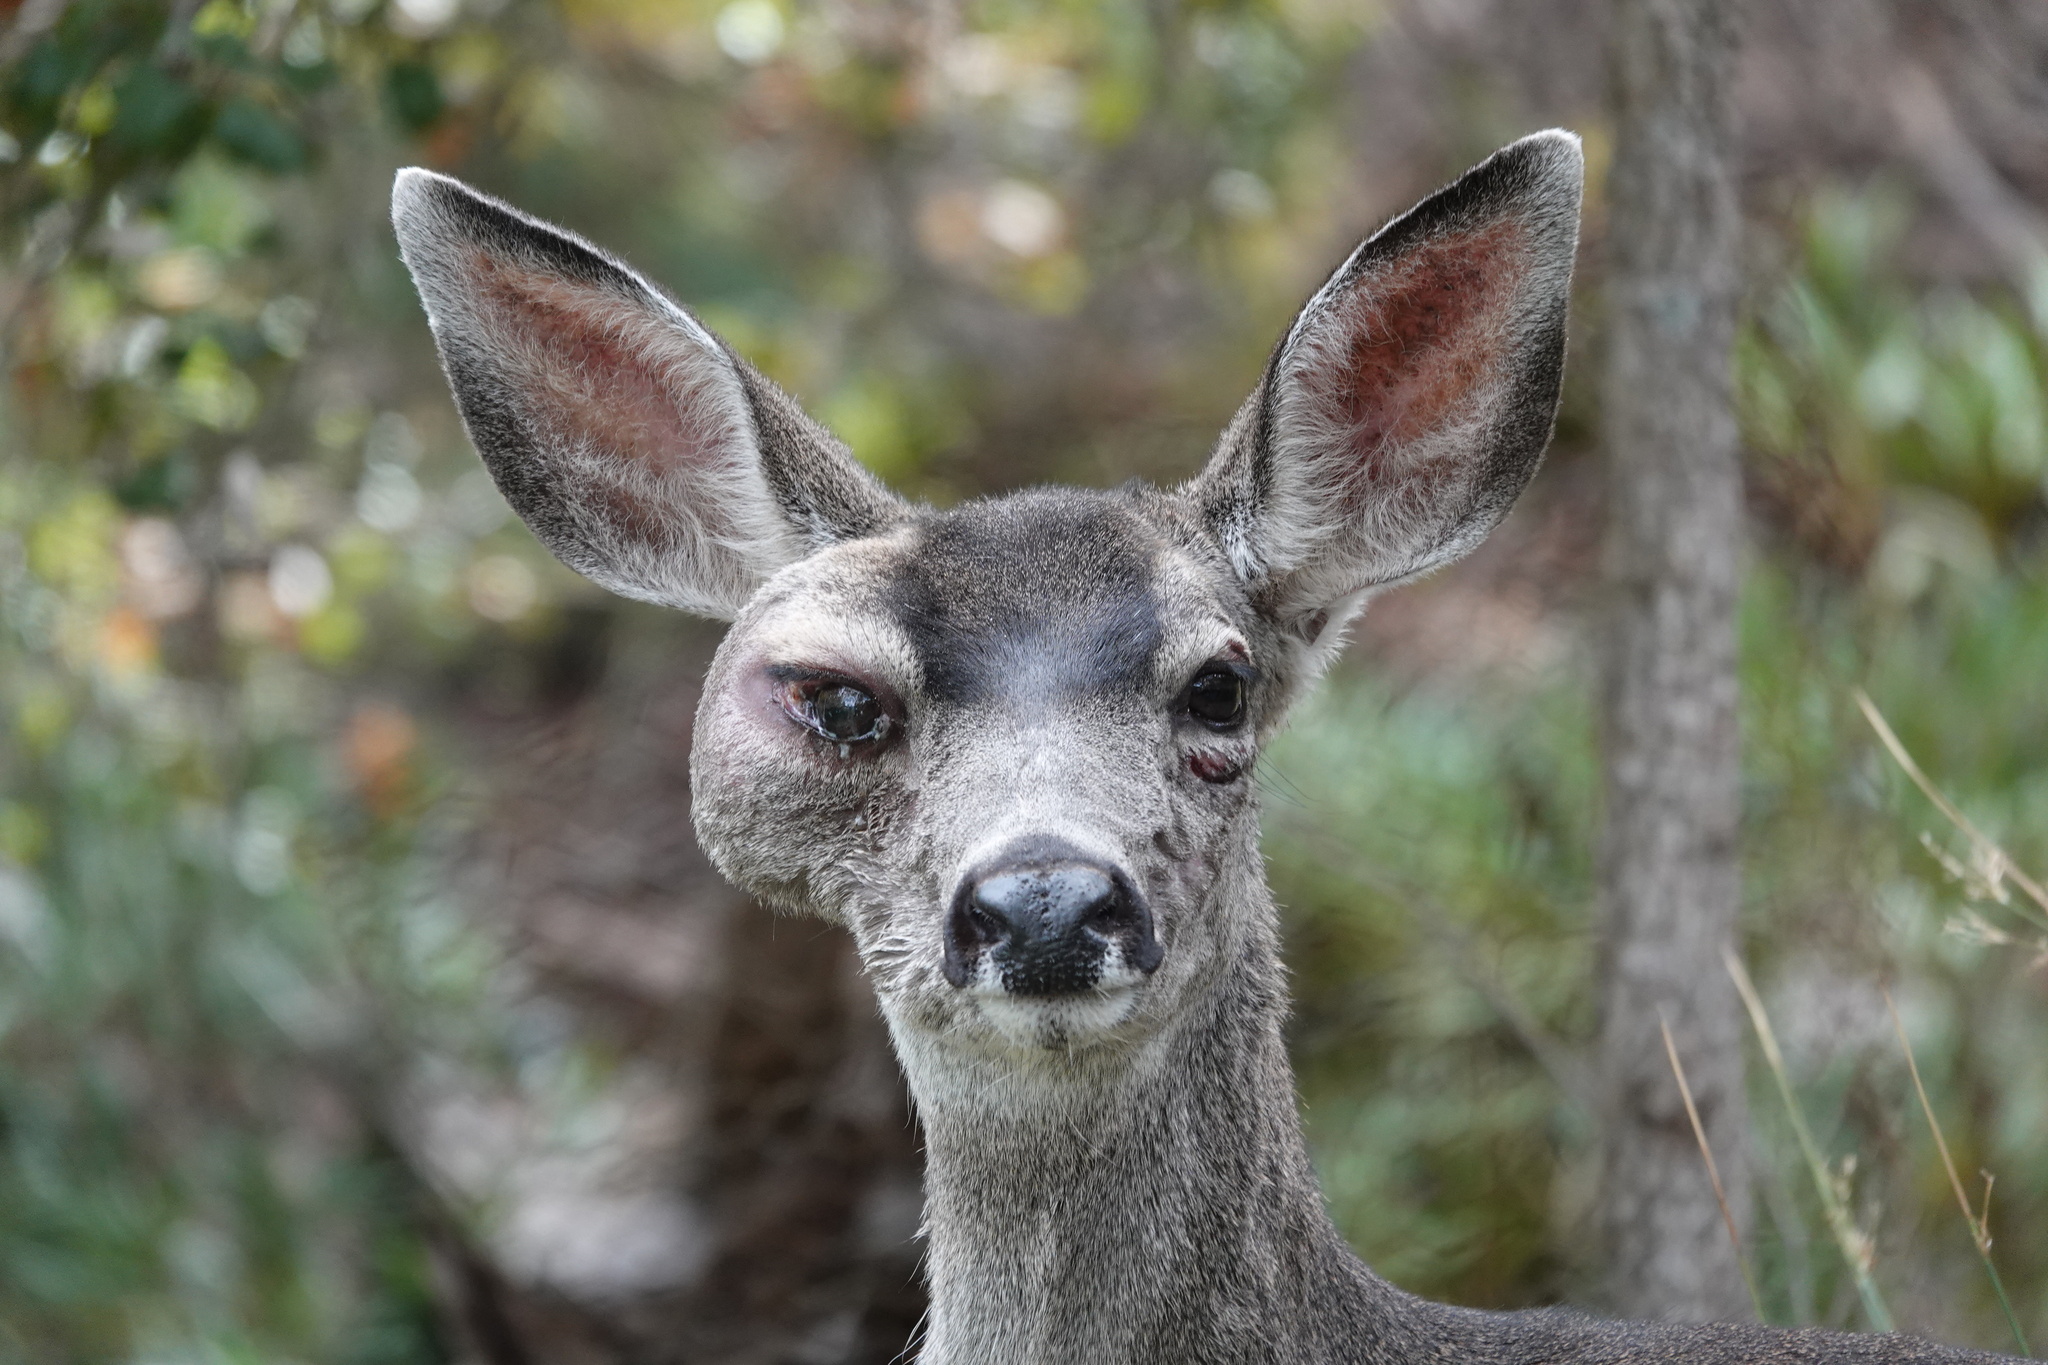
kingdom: Animalia
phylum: Chordata
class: Mammalia
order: Artiodactyla
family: Cervidae
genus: Odocoileus
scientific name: Odocoileus hemionus
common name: Mule deer
